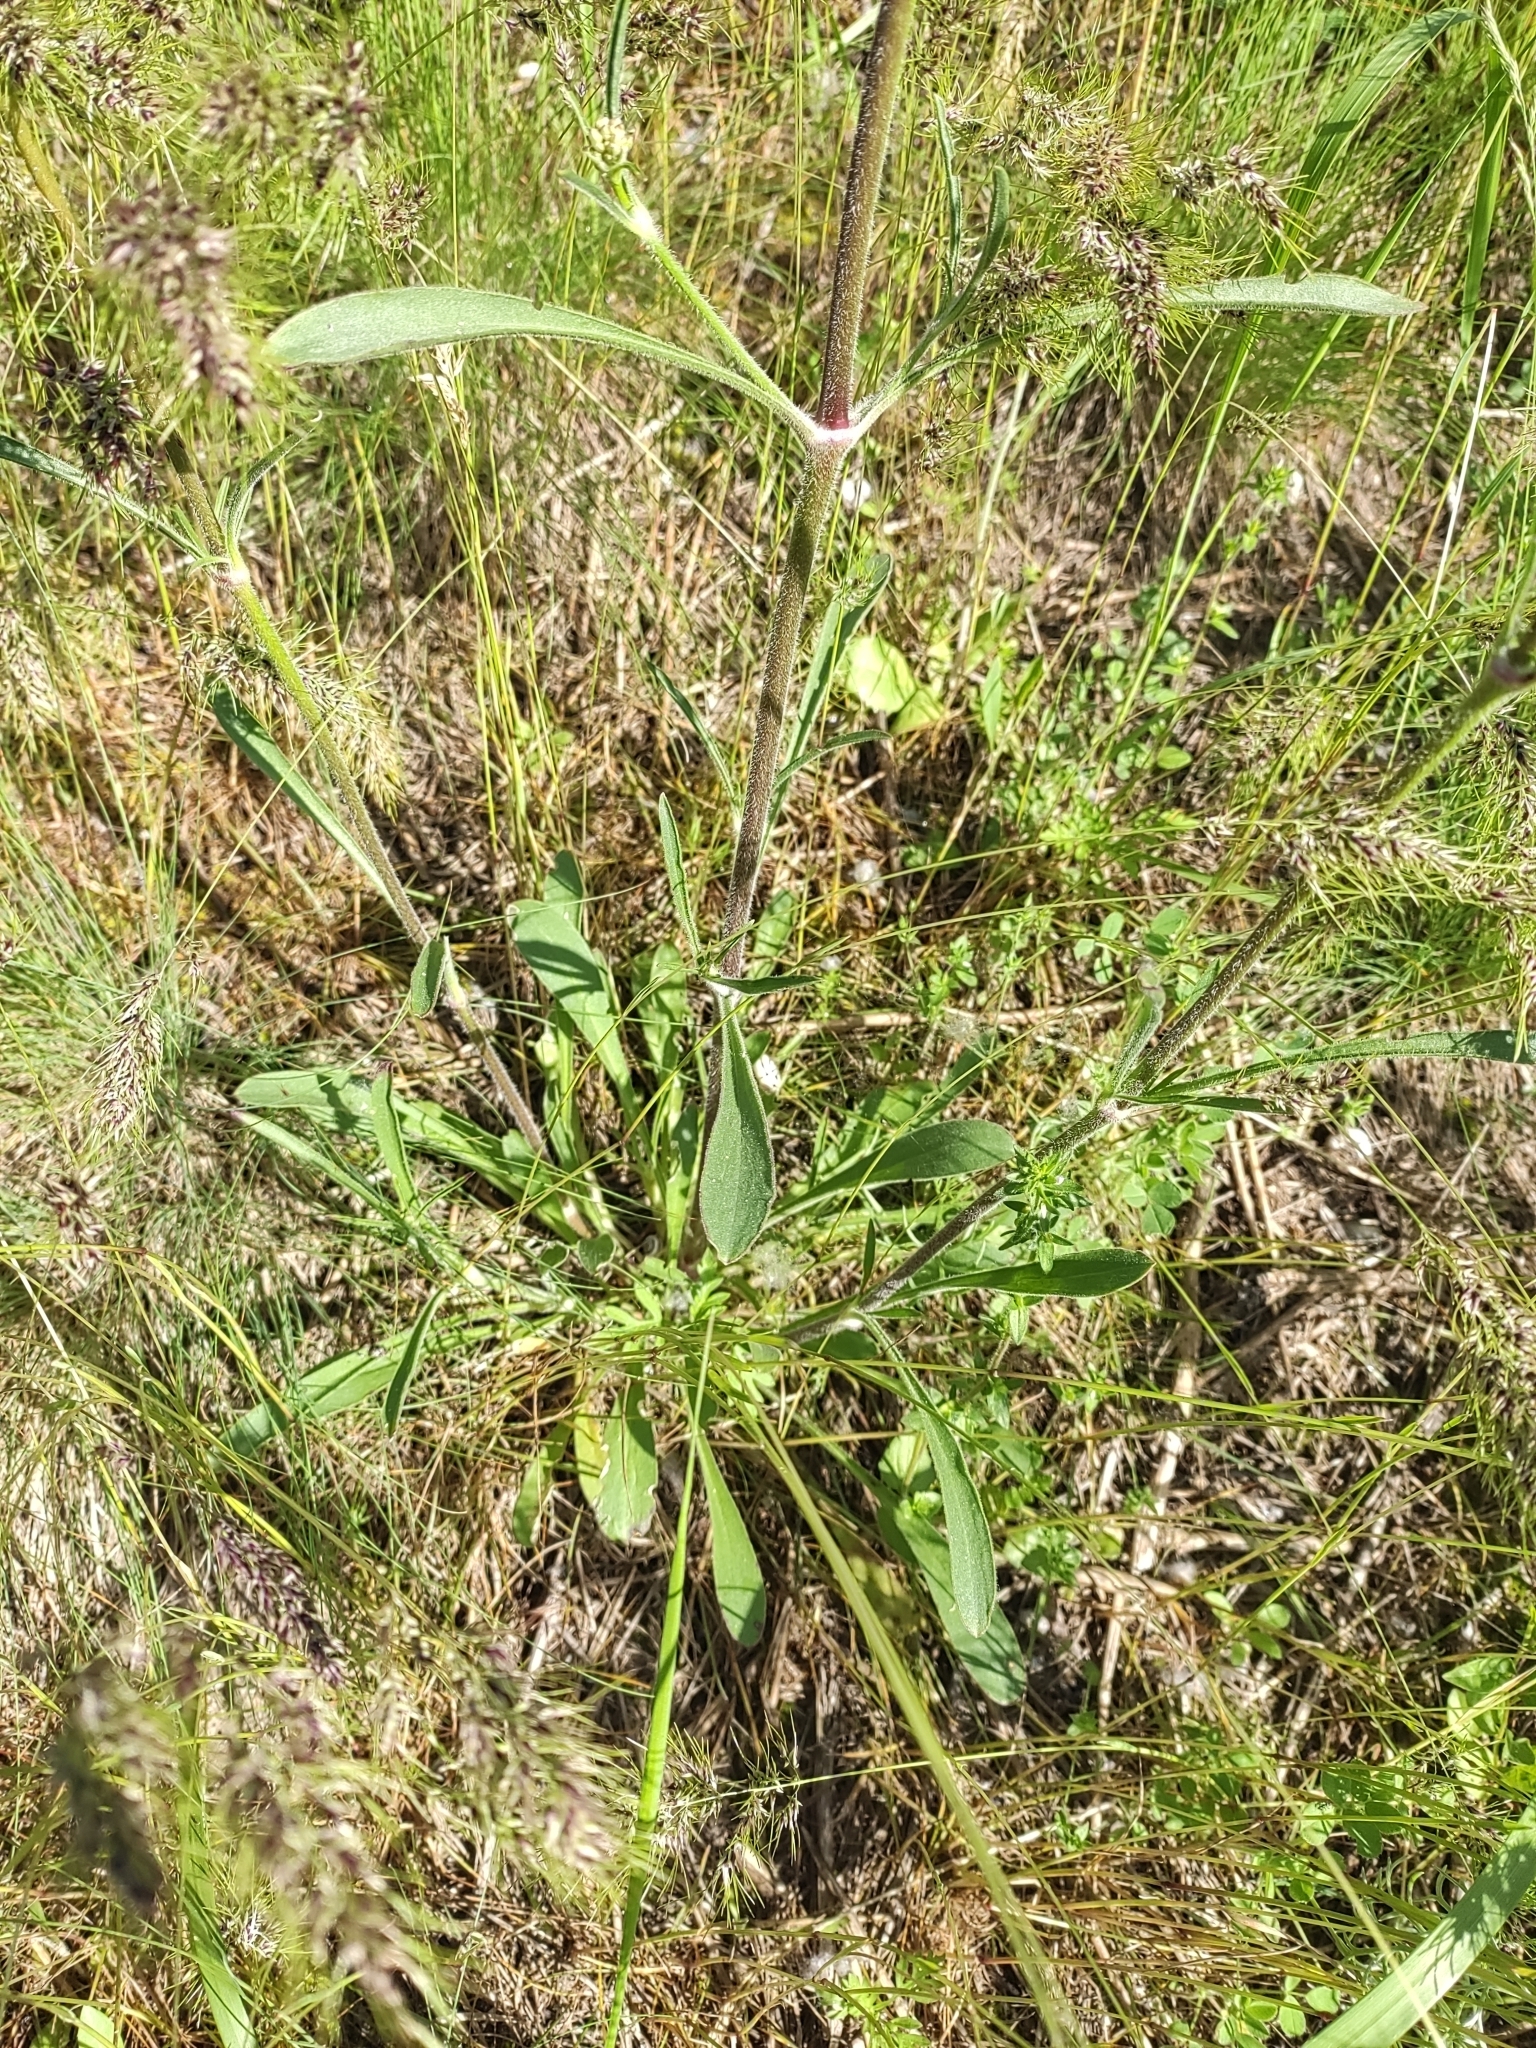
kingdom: Plantae
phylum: Tracheophyta
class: Magnoliopsida
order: Caryophyllales
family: Caryophyllaceae
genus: Silene
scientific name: Silene densiflora
